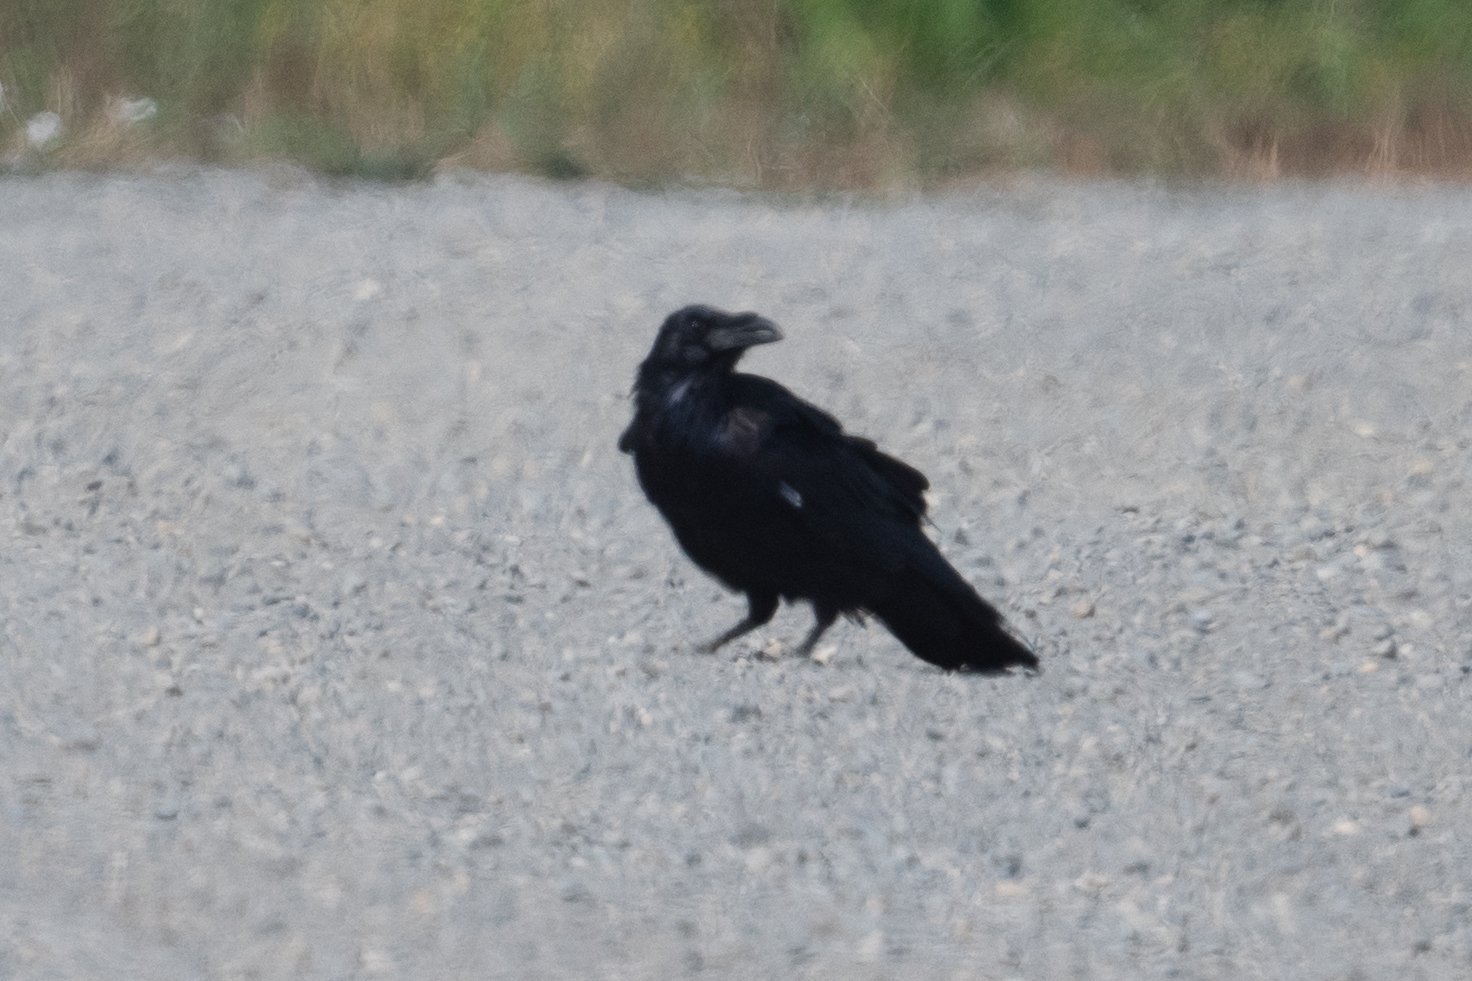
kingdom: Animalia
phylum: Chordata
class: Aves
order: Passeriformes
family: Corvidae
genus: Corvus
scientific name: Corvus corax
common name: Common raven
